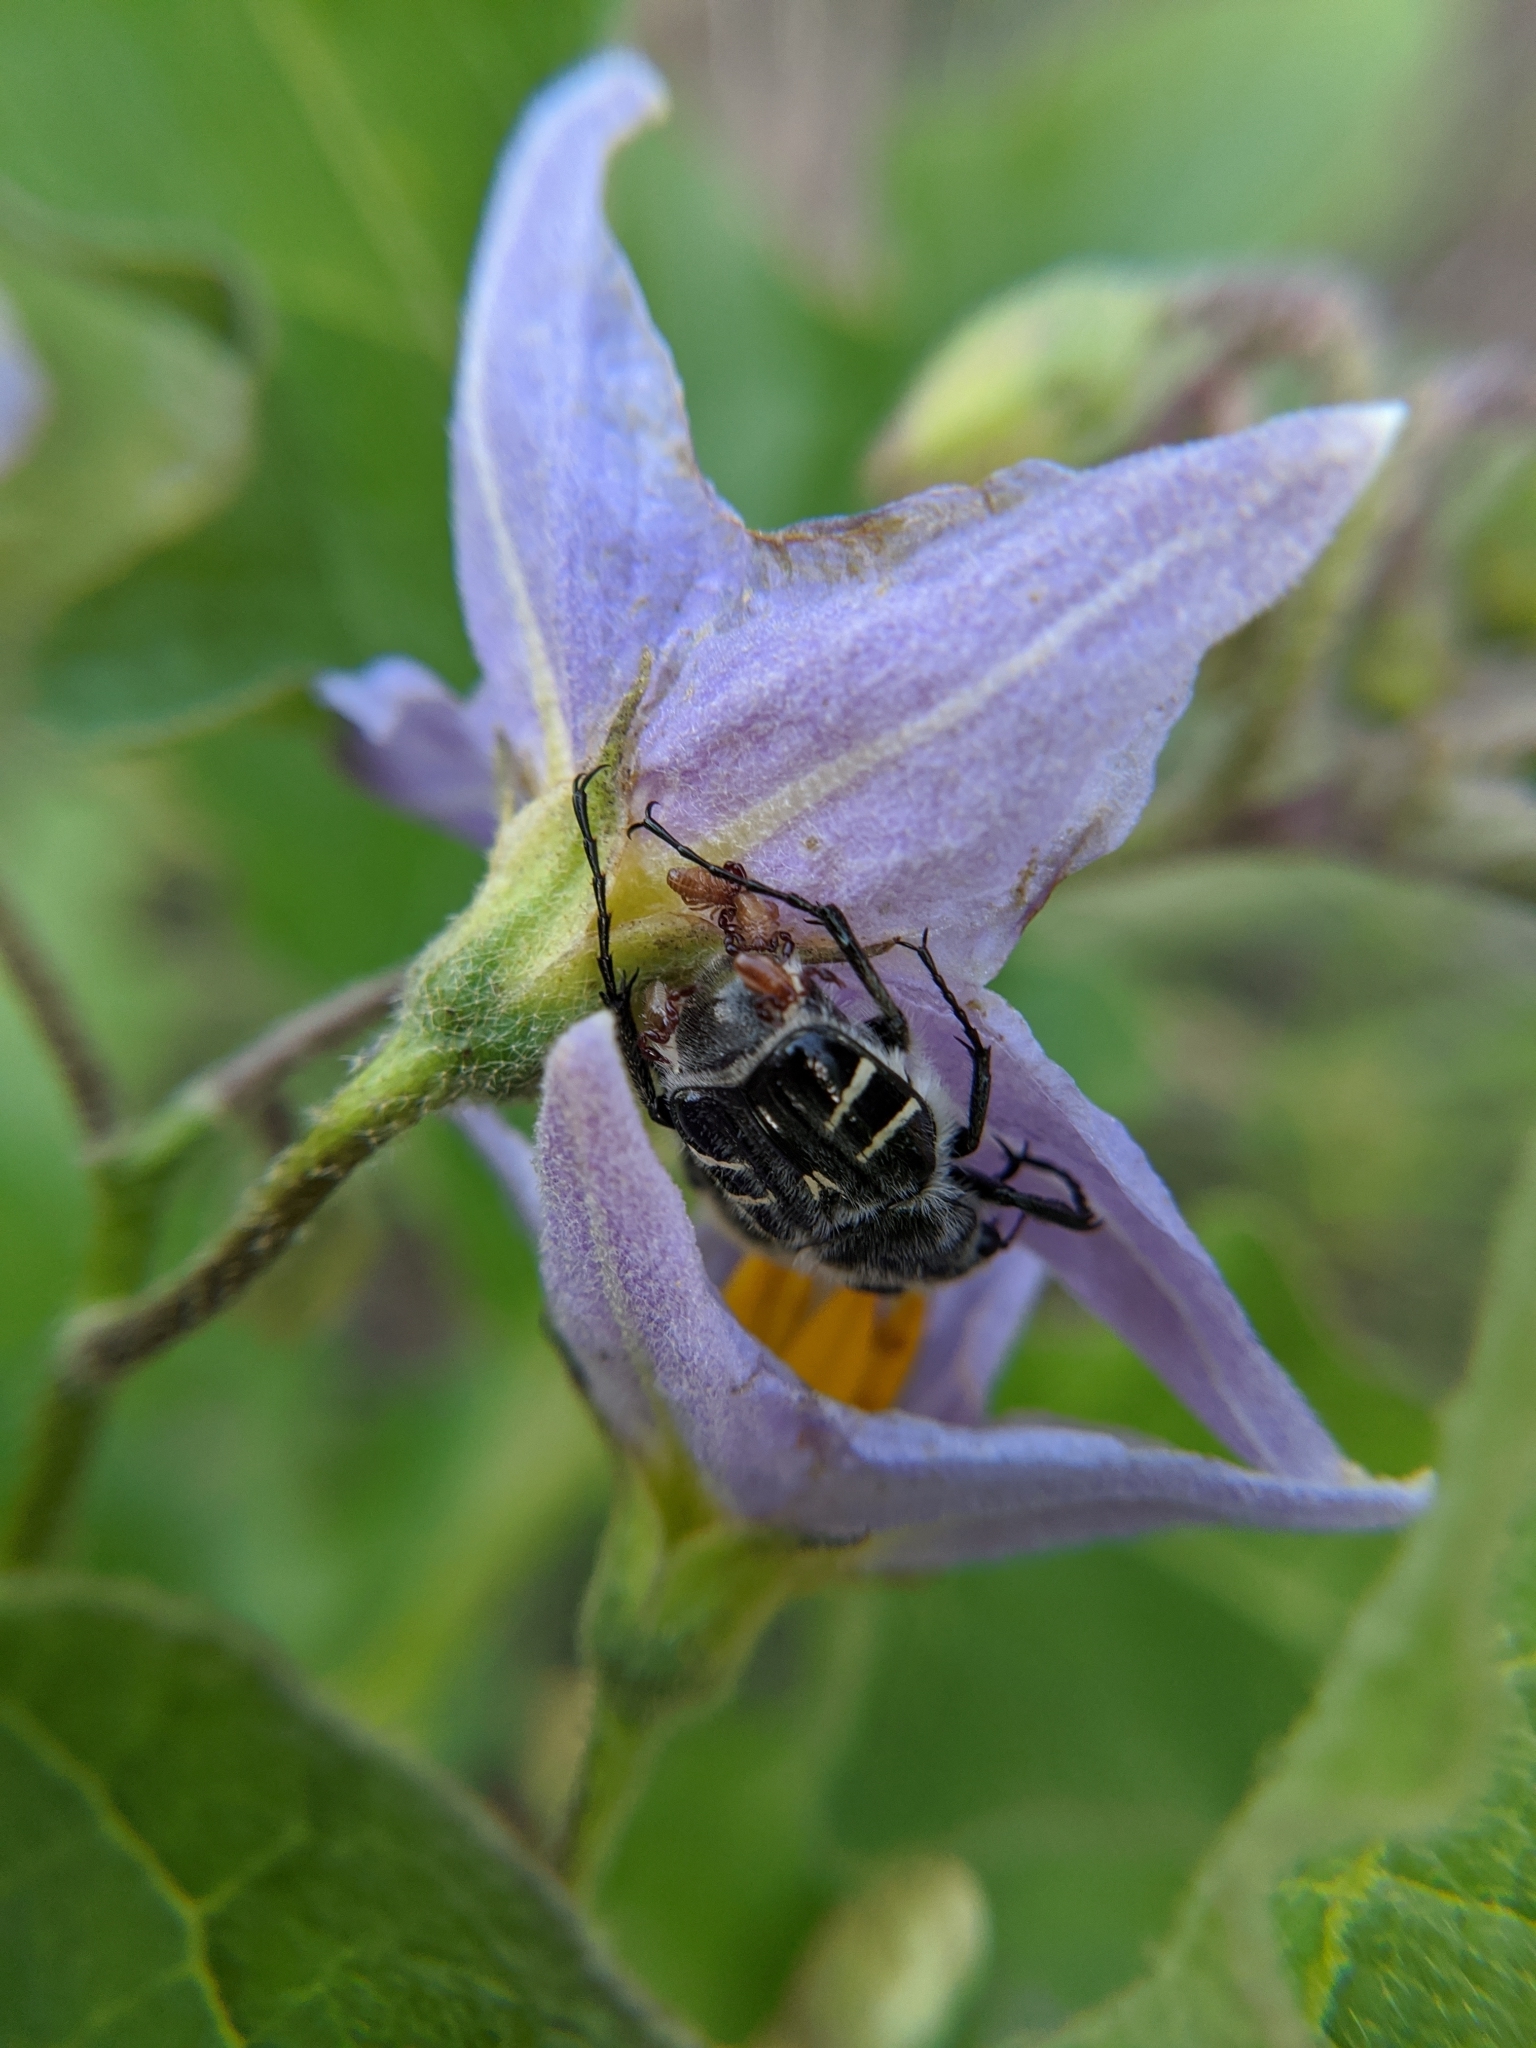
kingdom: Animalia
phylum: Arthropoda
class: Insecta
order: Coleoptera
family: Scarabaeidae
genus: Trichiotinus
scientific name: Trichiotinus texanus
